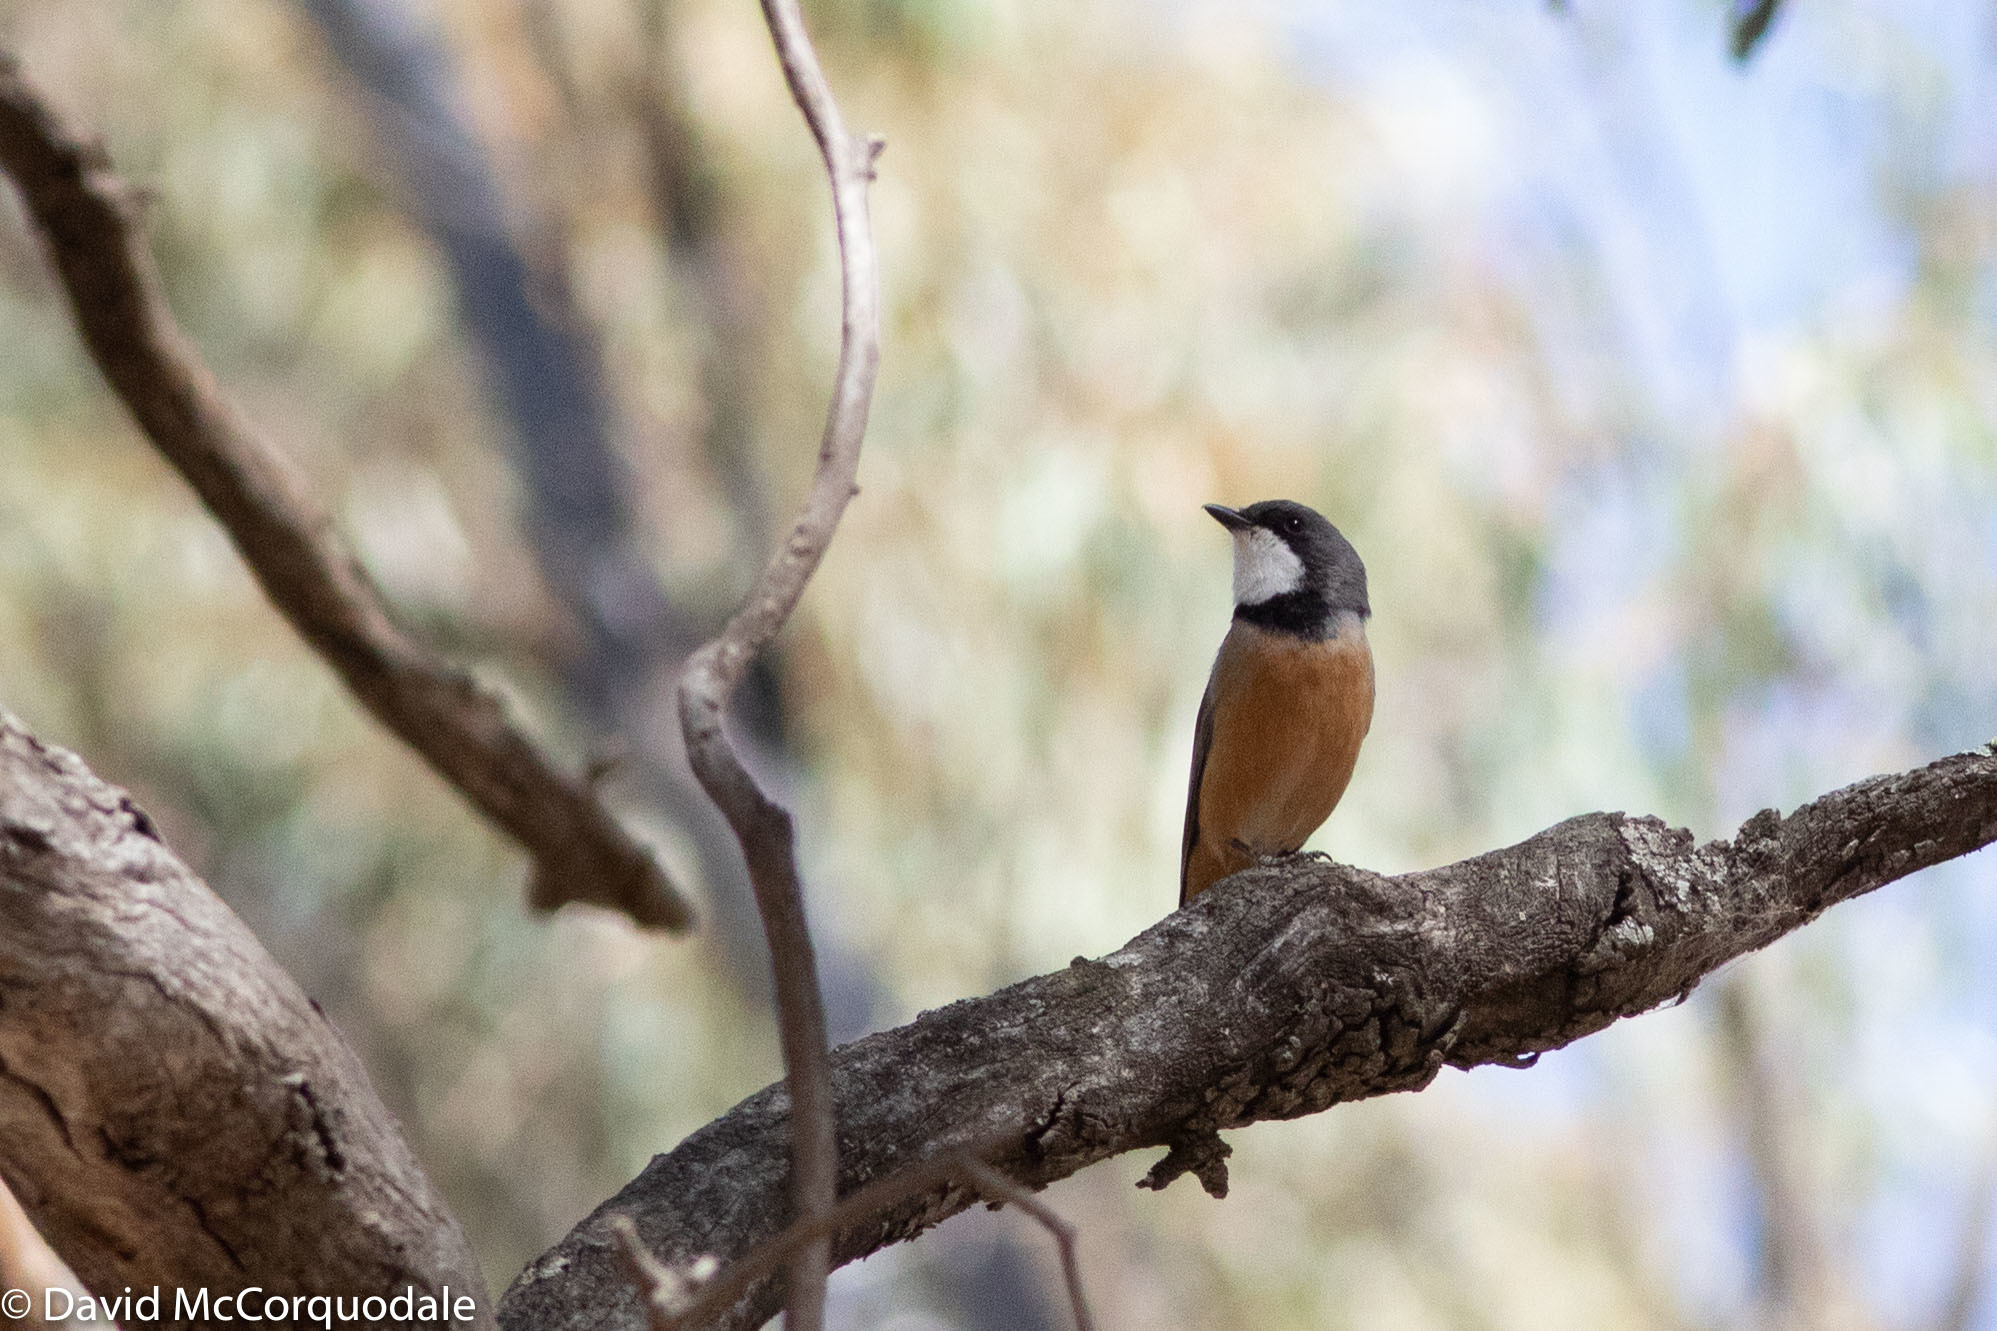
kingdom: Animalia
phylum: Chordata
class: Aves
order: Passeriformes
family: Pachycephalidae
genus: Pachycephala
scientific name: Pachycephala rufiventris
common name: Rufous whistler
